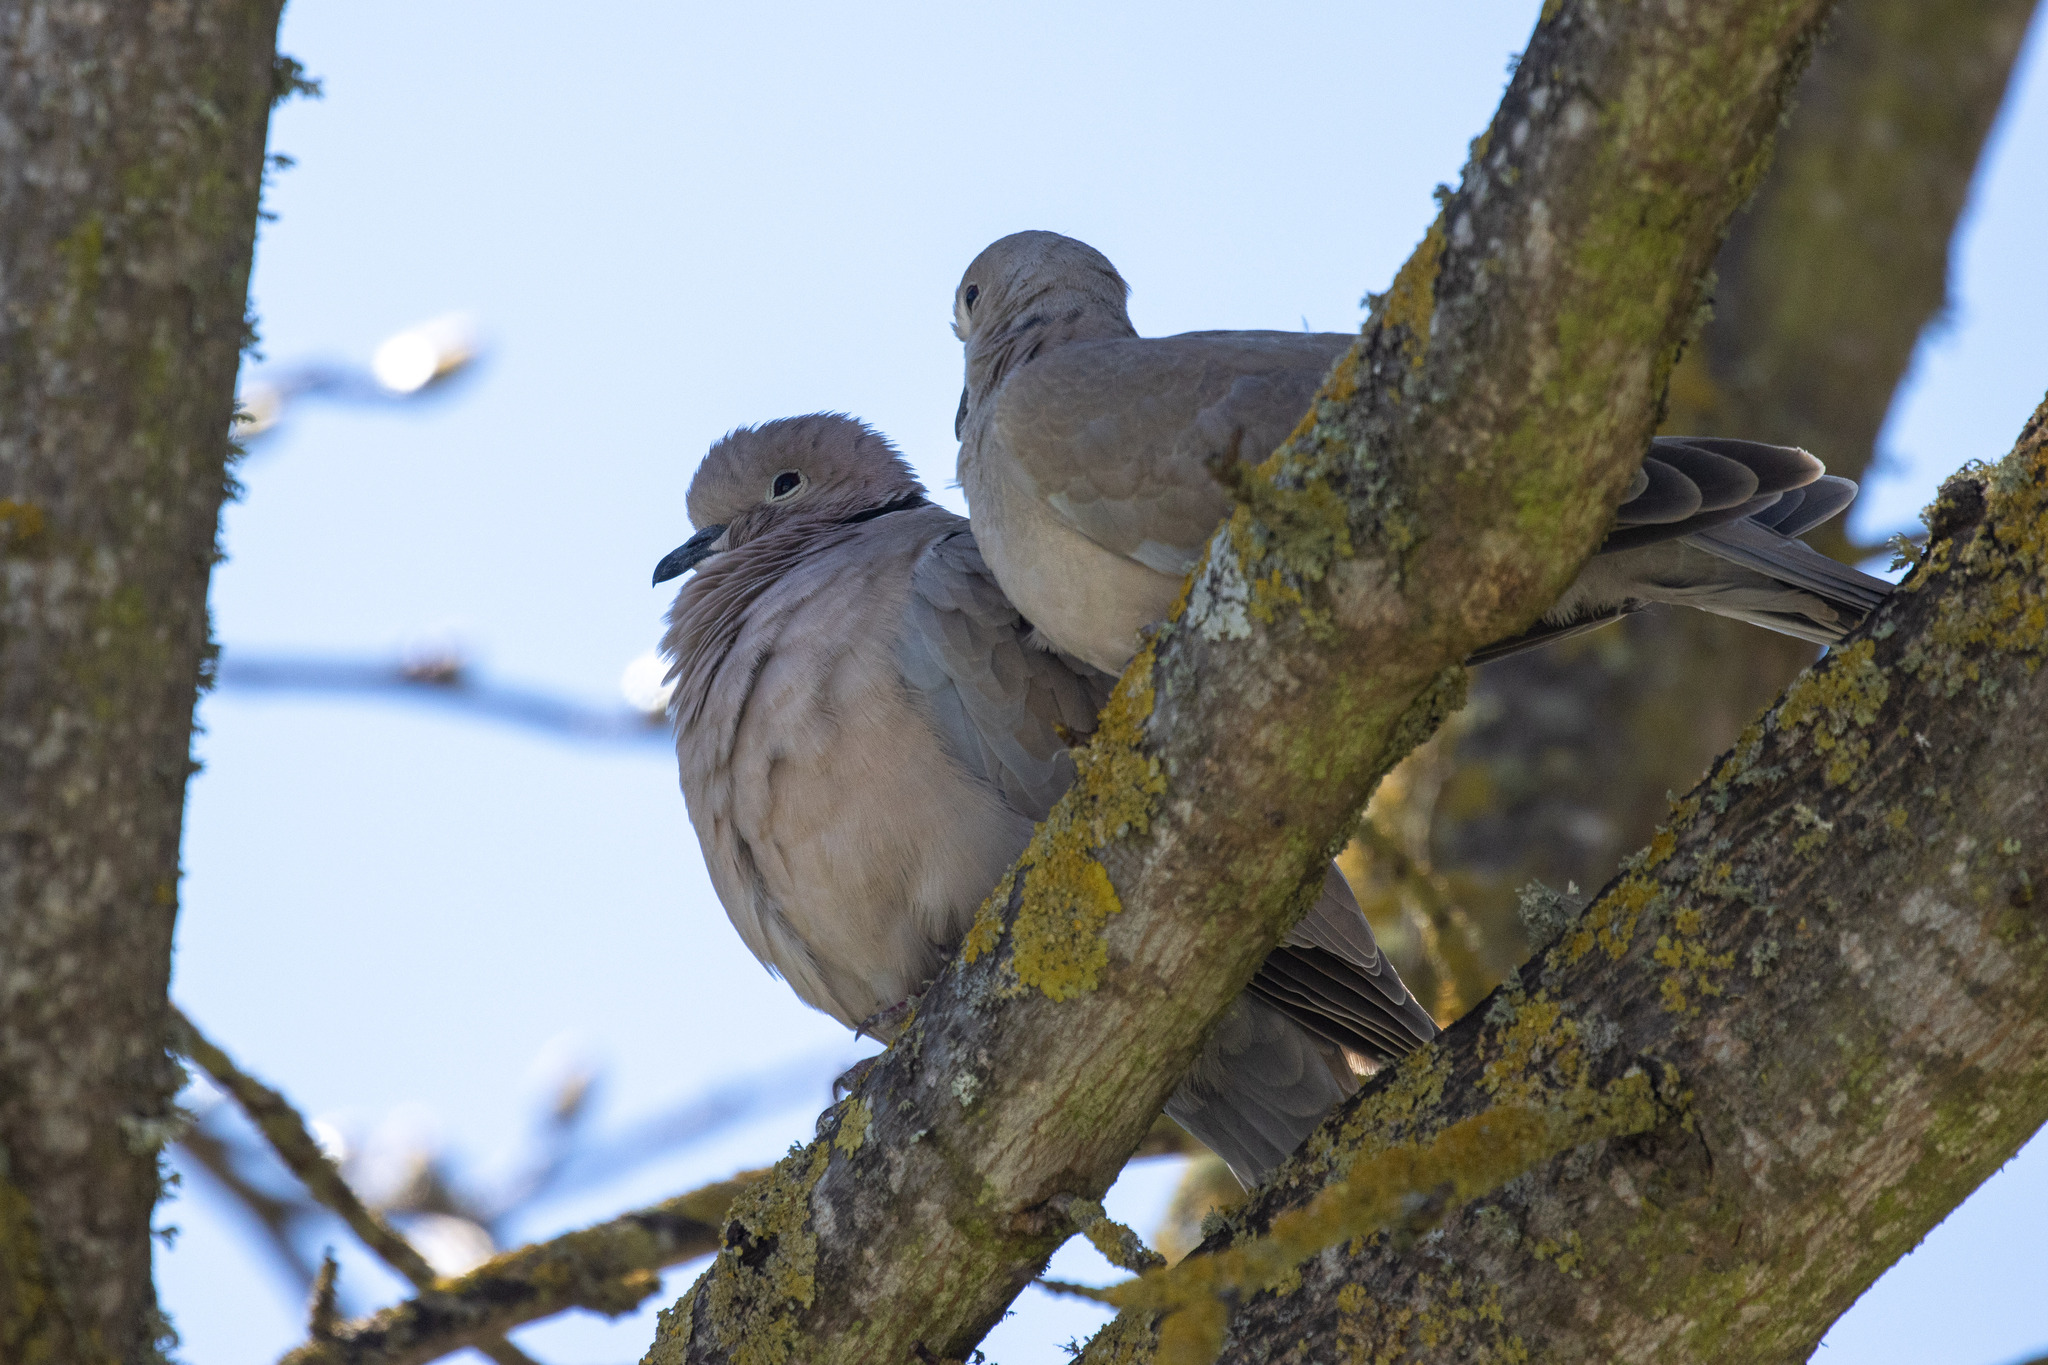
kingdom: Animalia
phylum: Chordata
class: Aves
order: Columbiformes
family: Columbidae
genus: Streptopelia
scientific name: Streptopelia decaocto
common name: Eurasian collared dove
